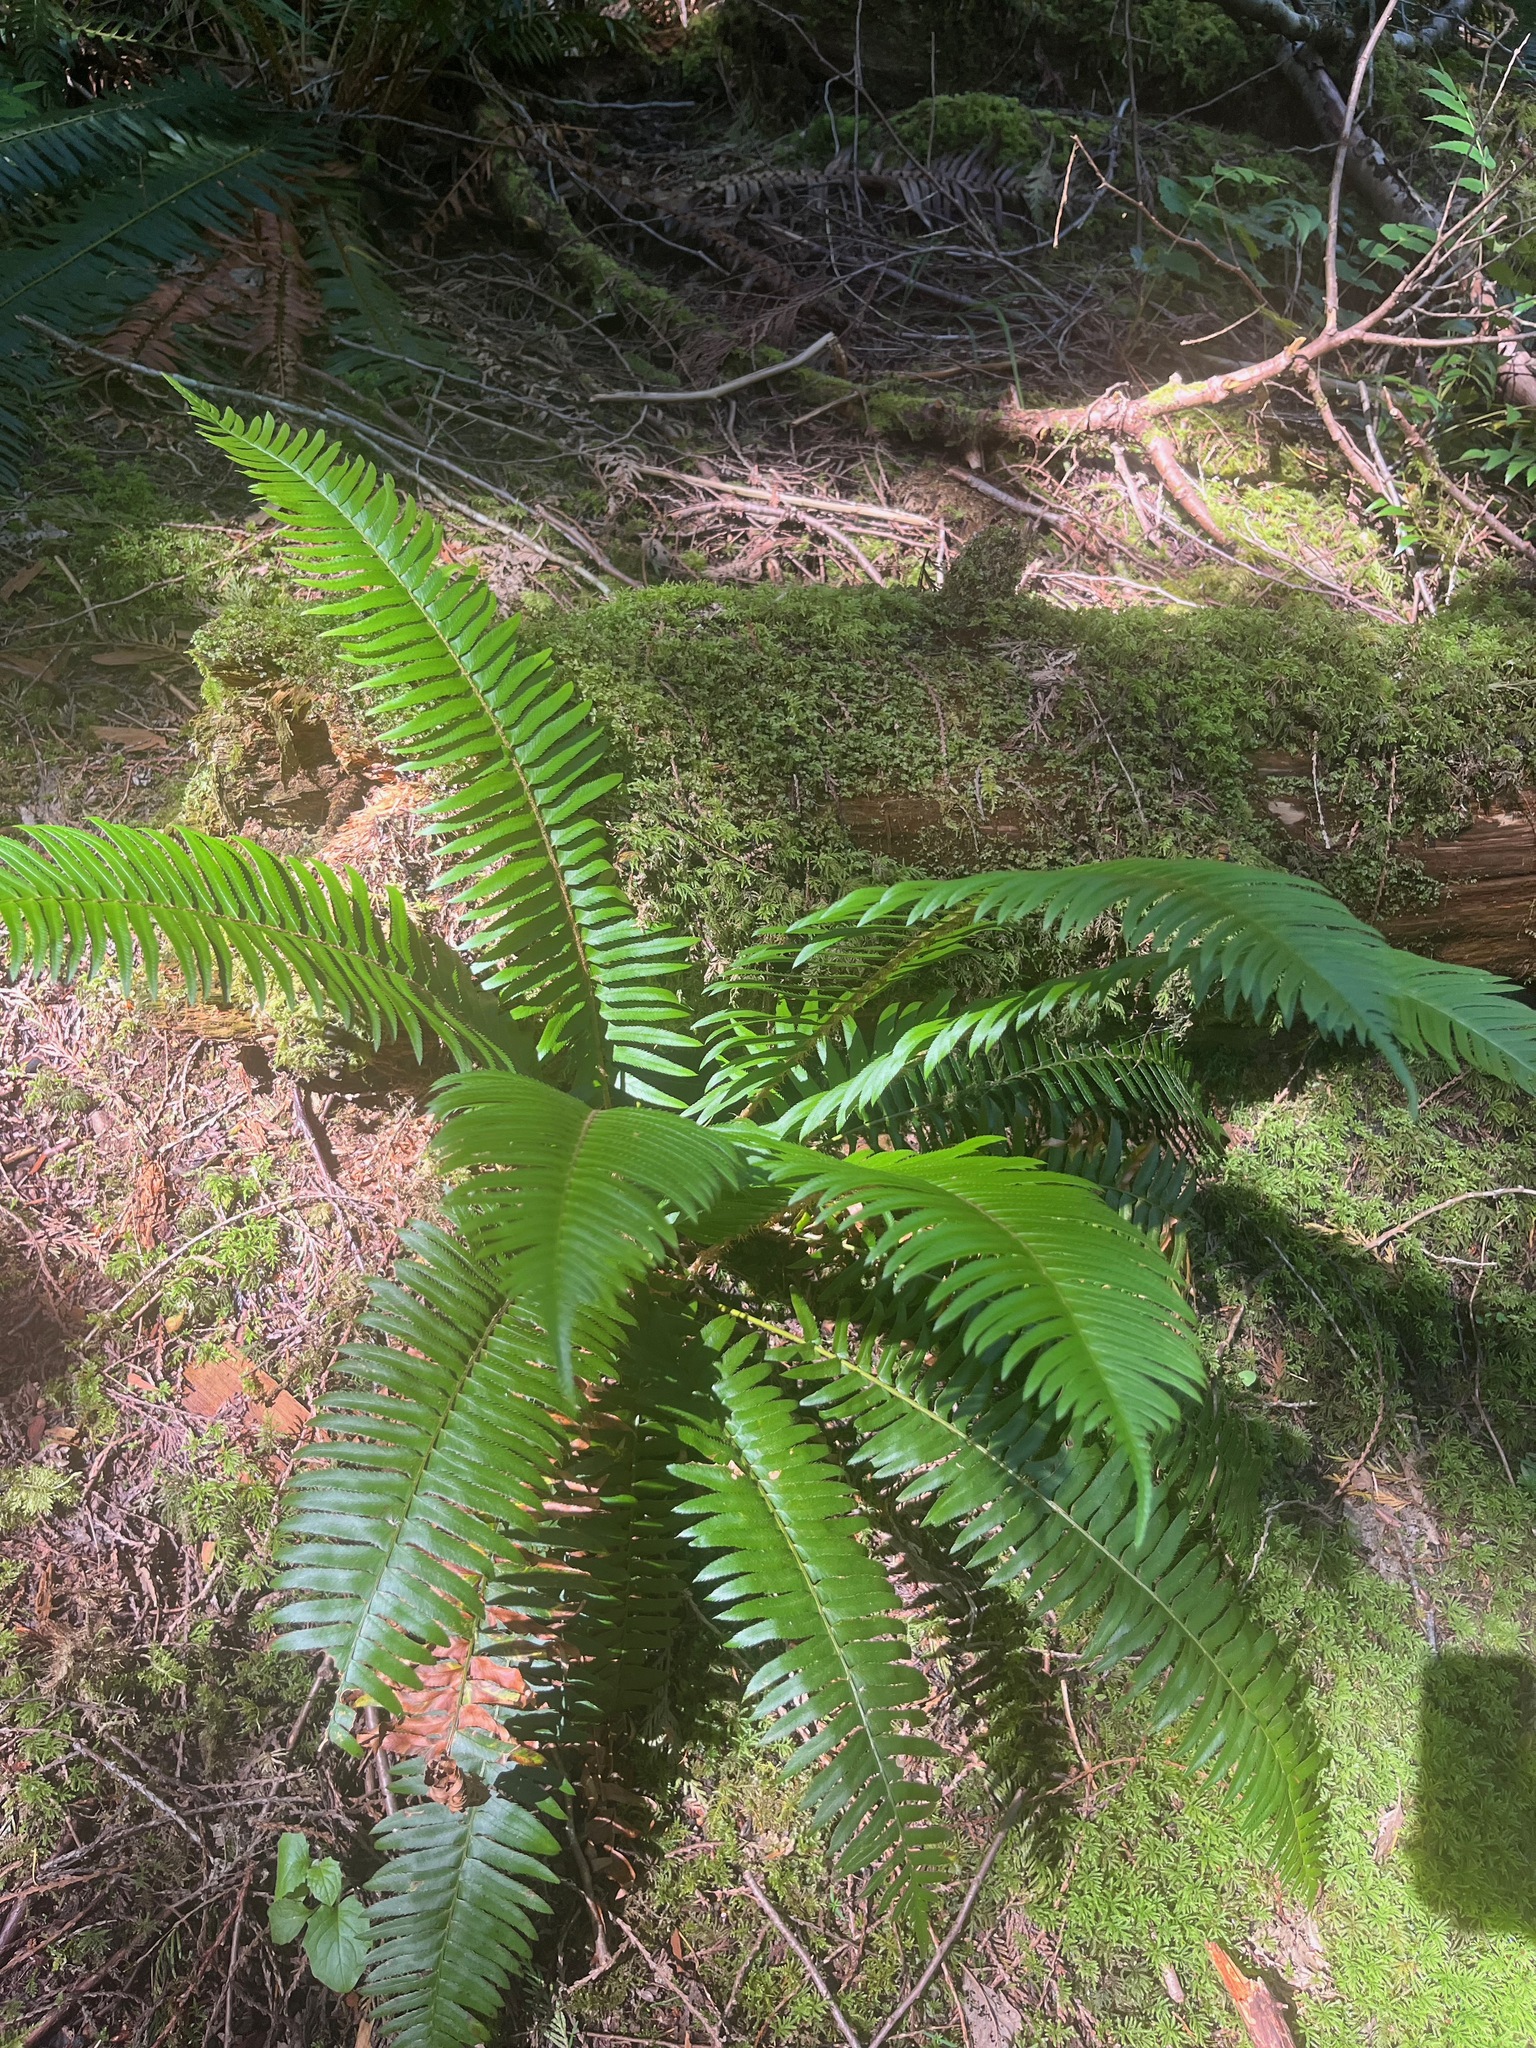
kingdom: Plantae
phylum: Tracheophyta
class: Polypodiopsida
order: Polypodiales
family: Dryopteridaceae
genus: Polystichum
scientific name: Polystichum munitum
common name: Western sword-fern
